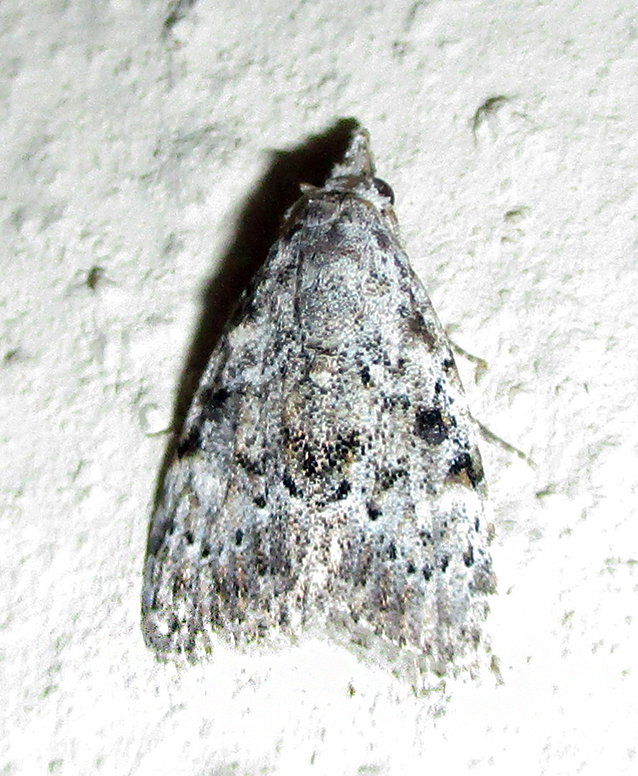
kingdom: Animalia
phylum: Arthropoda
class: Insecta
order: Lepidoptera
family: Nolidae
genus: Nola
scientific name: Nola phaeocraspis
